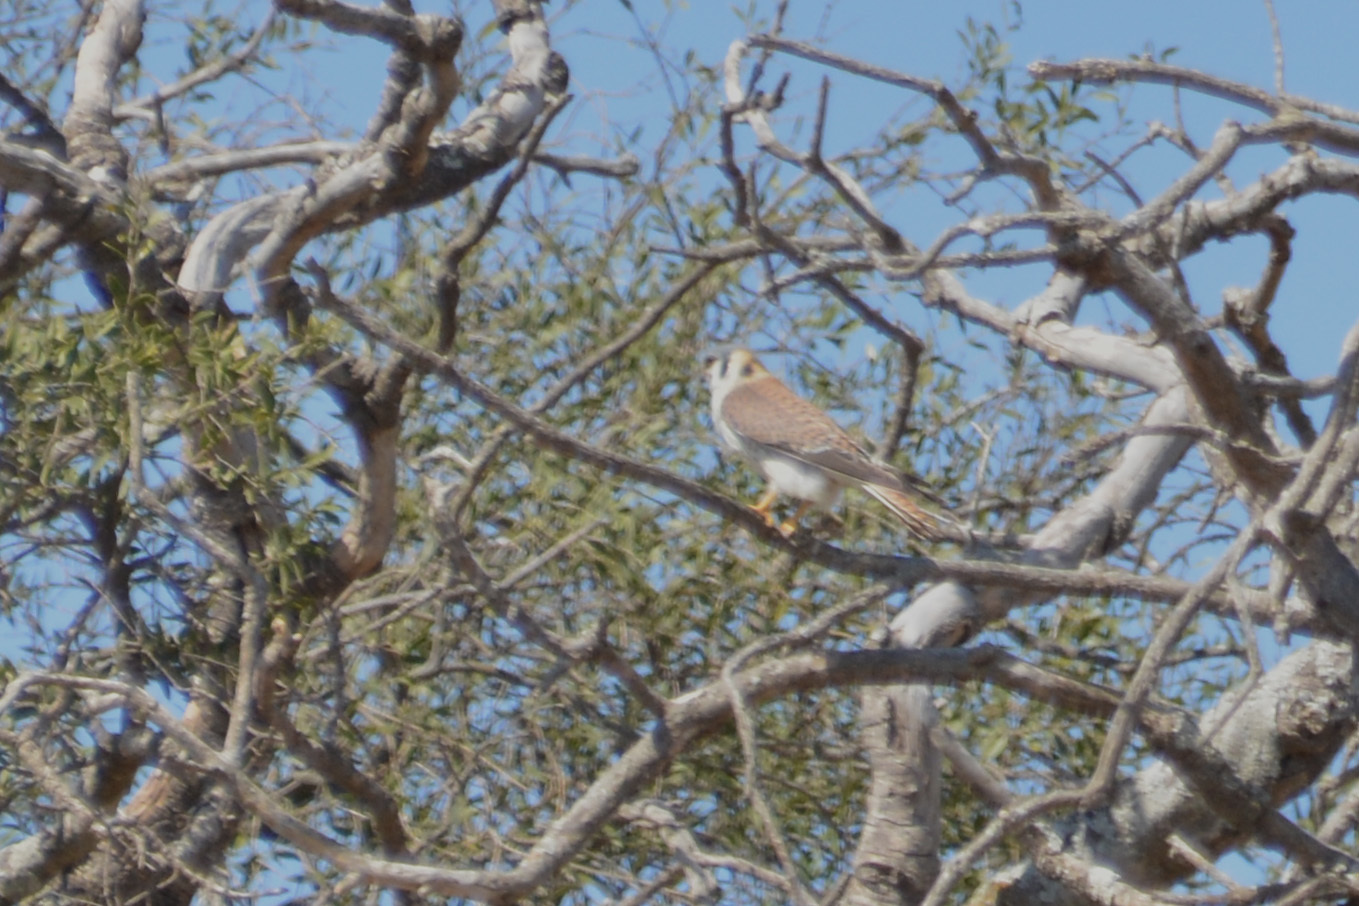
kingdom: Animalia
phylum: Chordata
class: Aves
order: Falconiformes
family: Falconidae
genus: Falco
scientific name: Falco sparverius
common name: American kestrel
